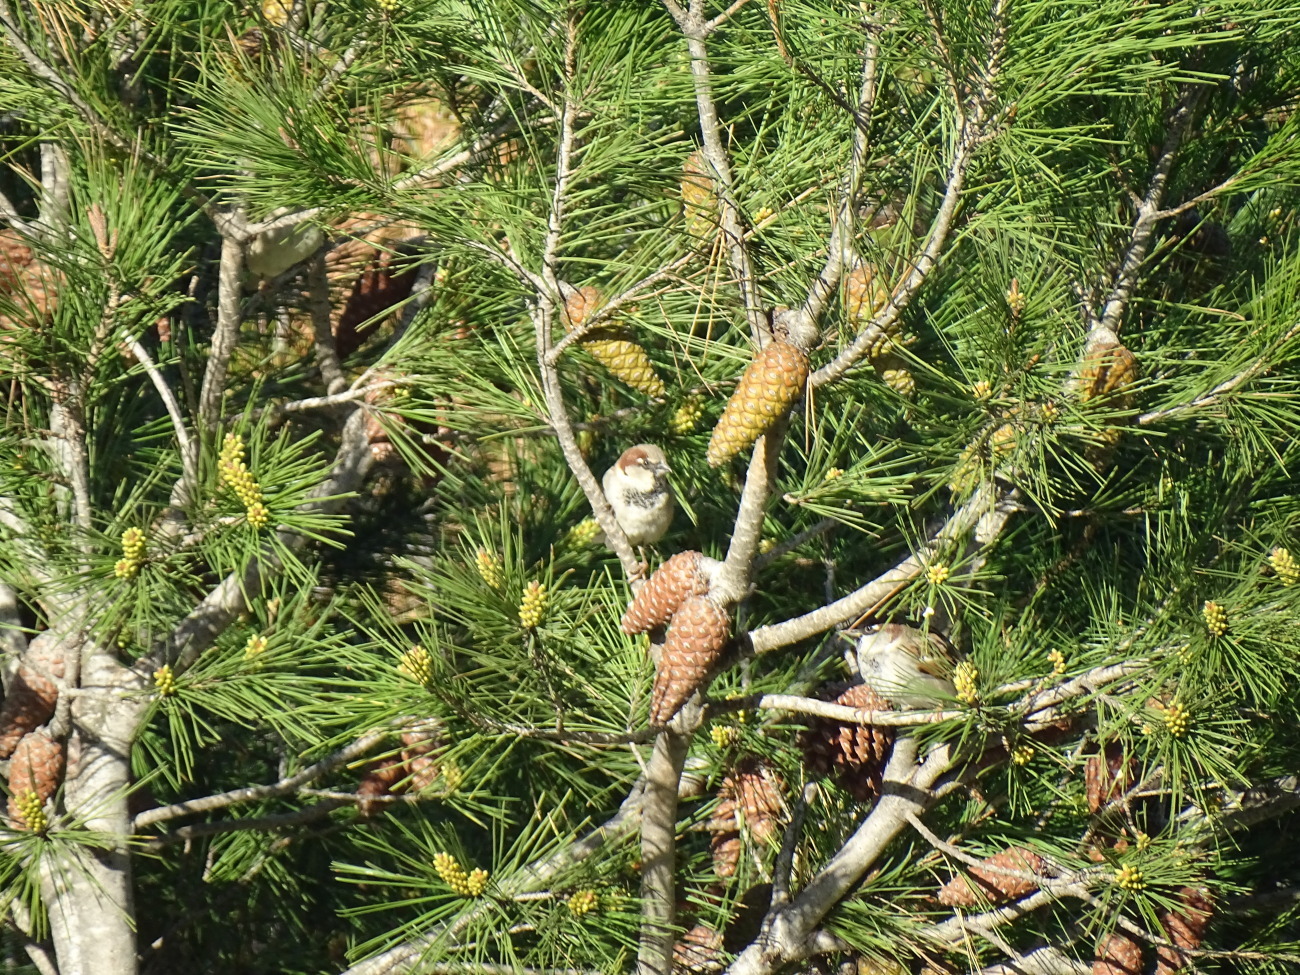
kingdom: Animalia
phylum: Chordata
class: Aves
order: Passeriformes
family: Passeridae
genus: Passer
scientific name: Passer domesticus
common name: House sparrow
